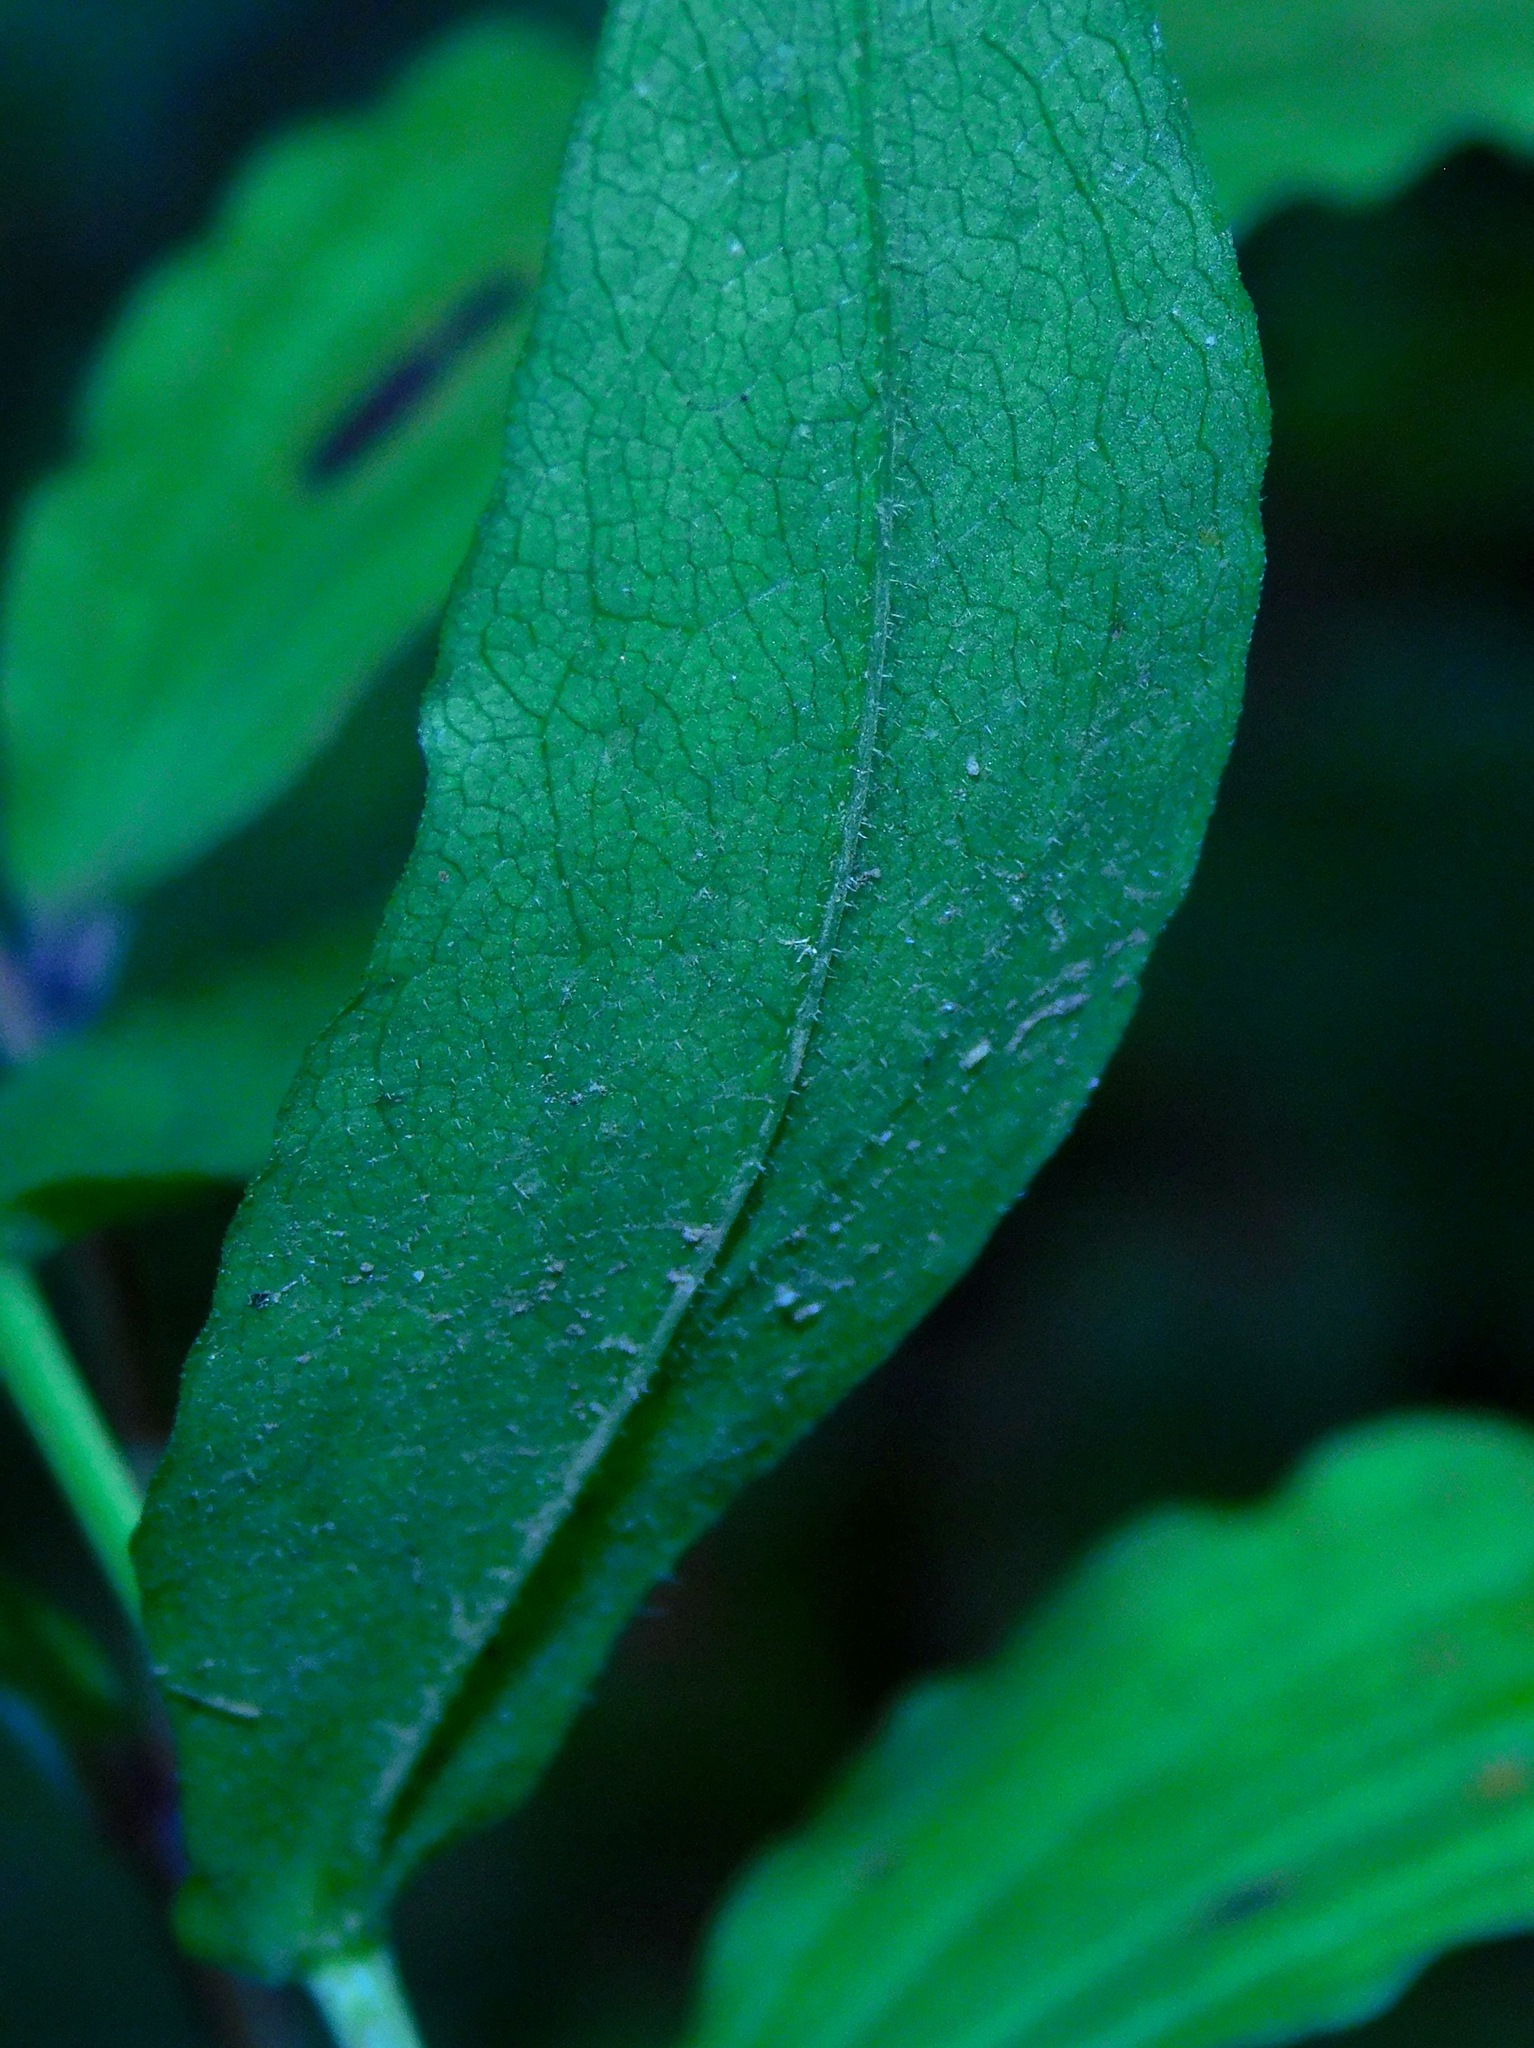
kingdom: Plantae
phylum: Tracheophyta
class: Magnoliopsida
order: Asterales
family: Asteraceae
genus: Symphyotrichum
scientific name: Symphyotrichum undulatum
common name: Clasping heart-leaf aster
